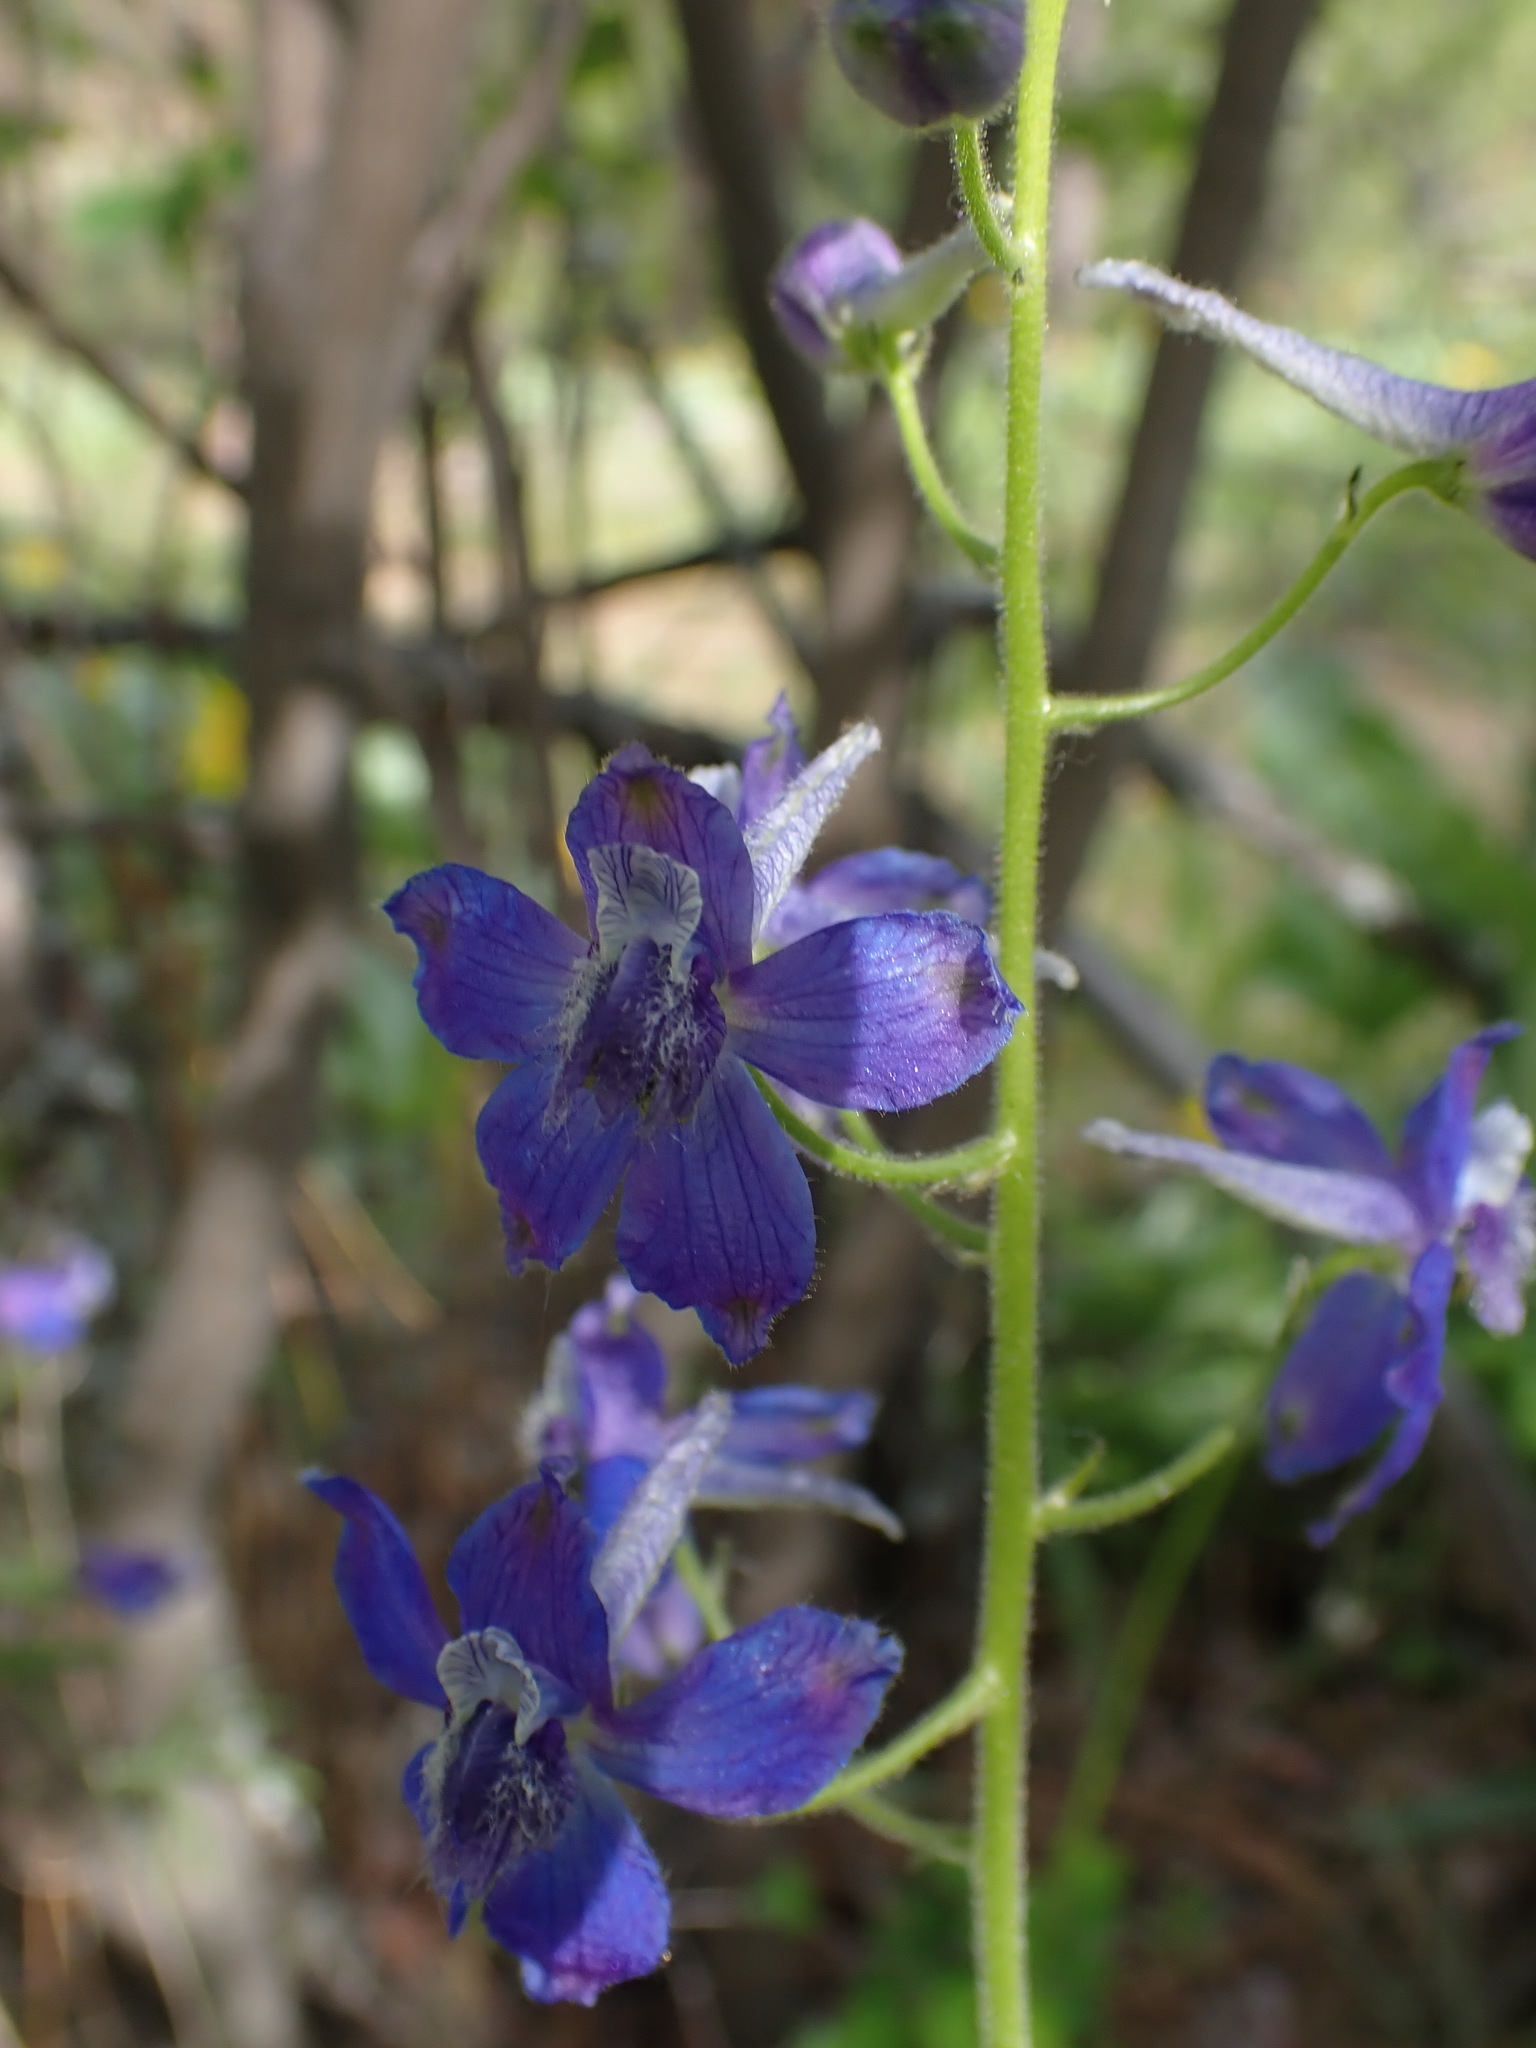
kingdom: Plantae
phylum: Tracheophyta
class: Magnoliopsida
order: Ranunculales
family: Ranunculaceae
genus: Delphinium
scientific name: Delphinium nuttallianum
